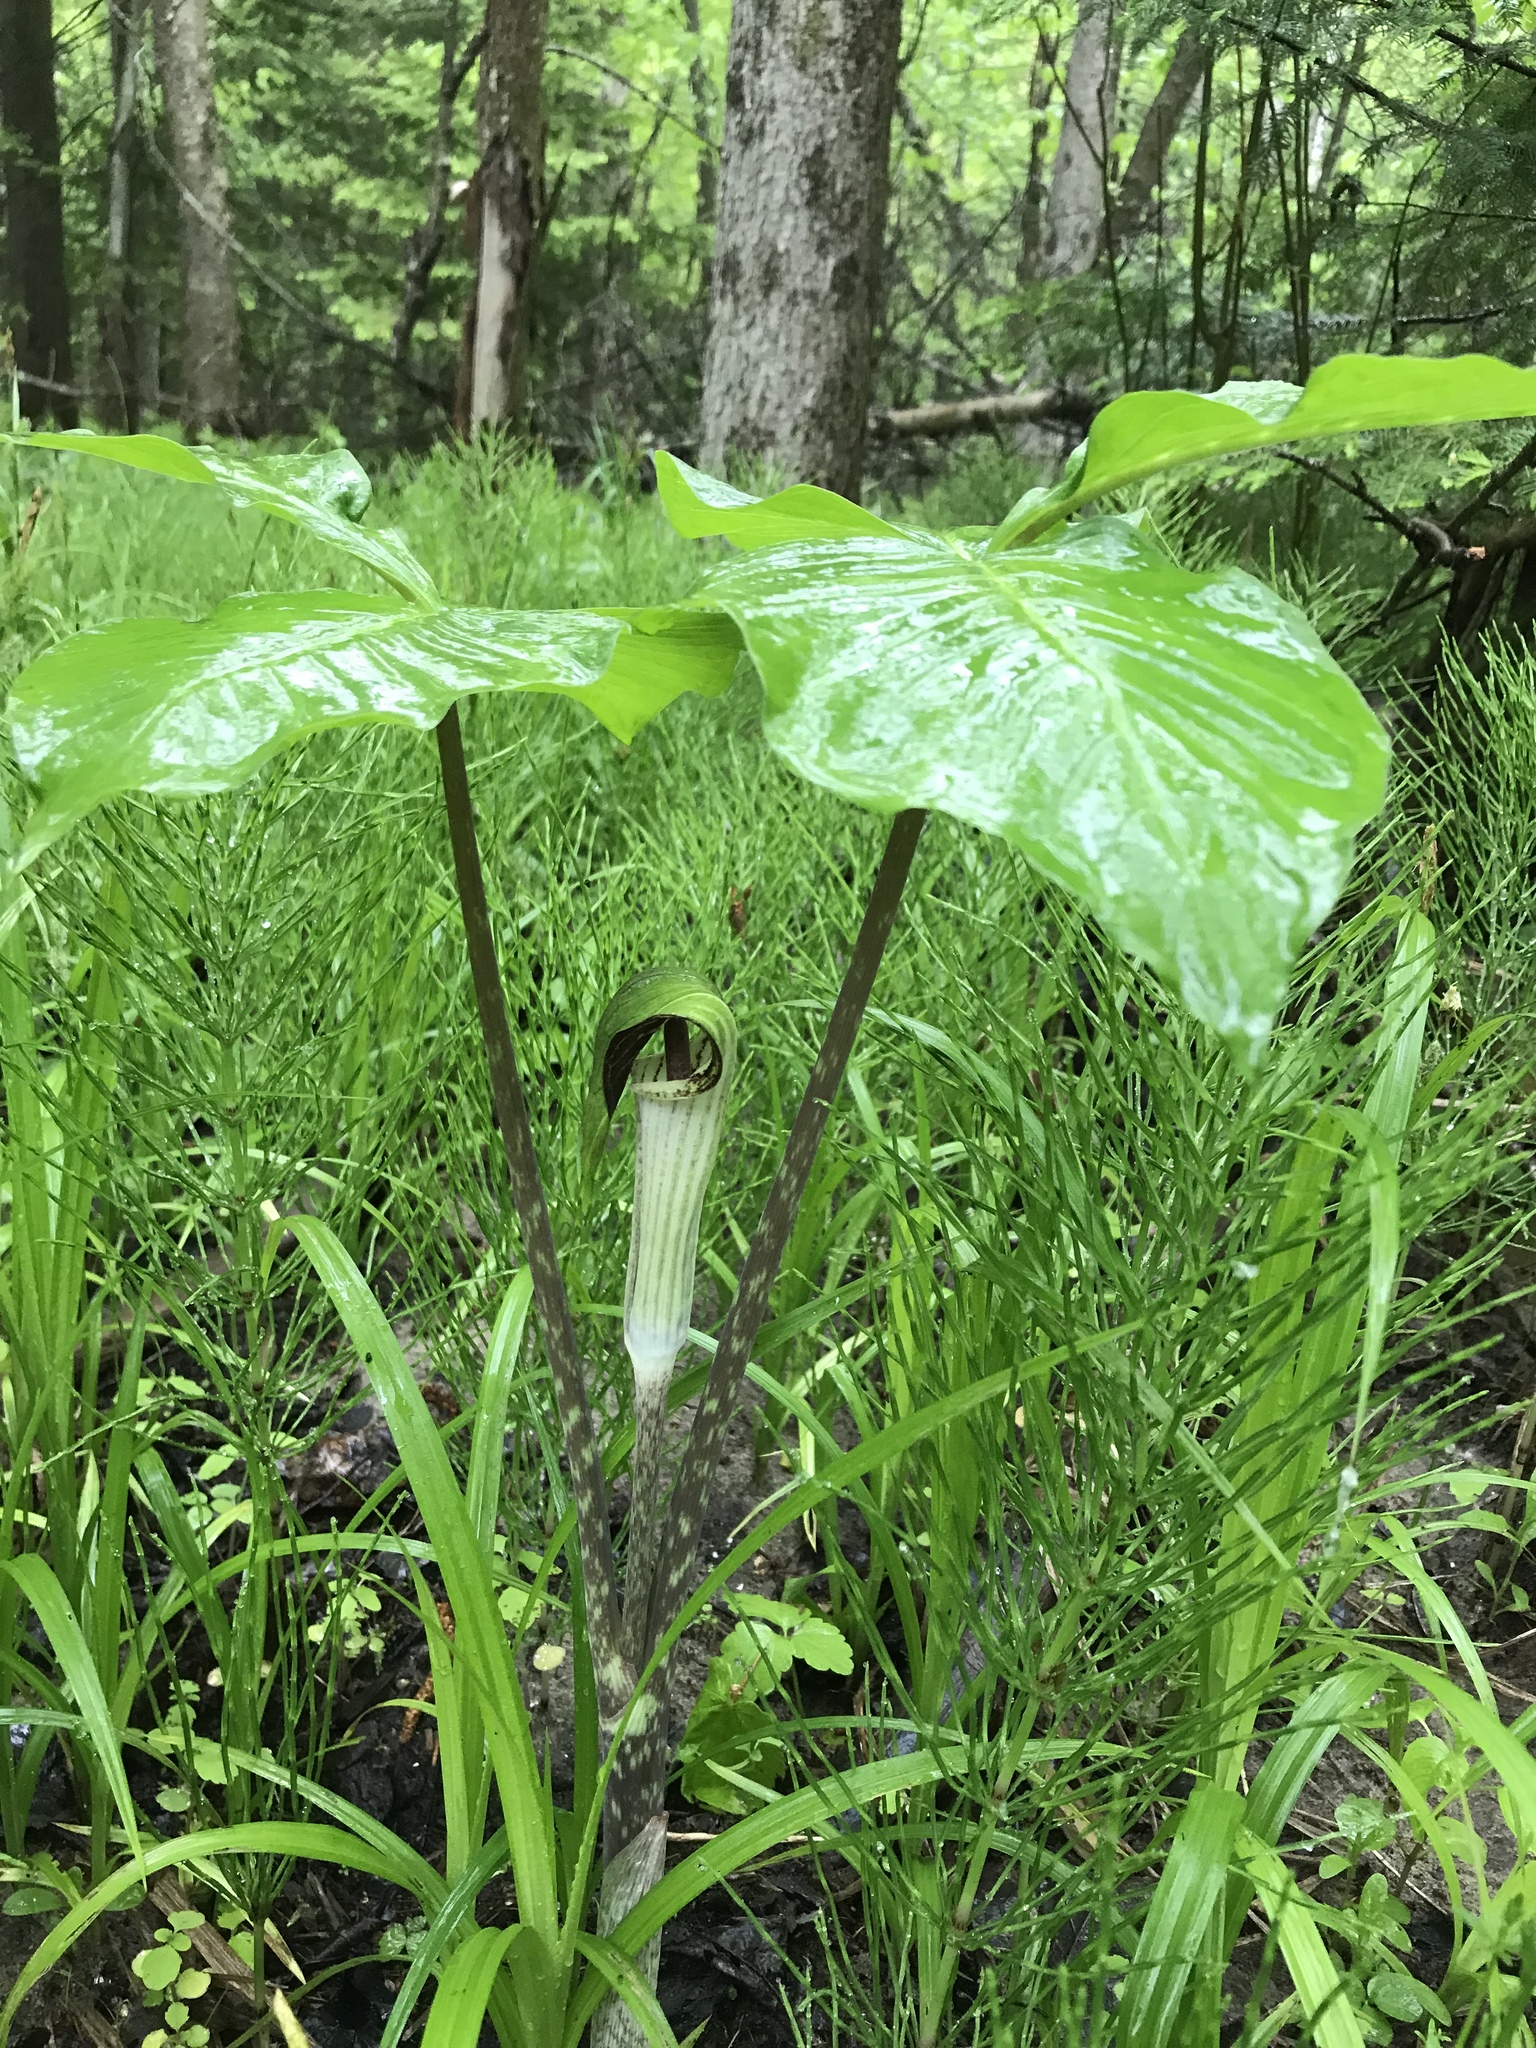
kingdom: Plantae
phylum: Tracheophyta
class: Liliopsida
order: Alismatales
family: Araceae
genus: Arisaema
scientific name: Arisaema triphyllum
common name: Jack-in-the-pulpit
